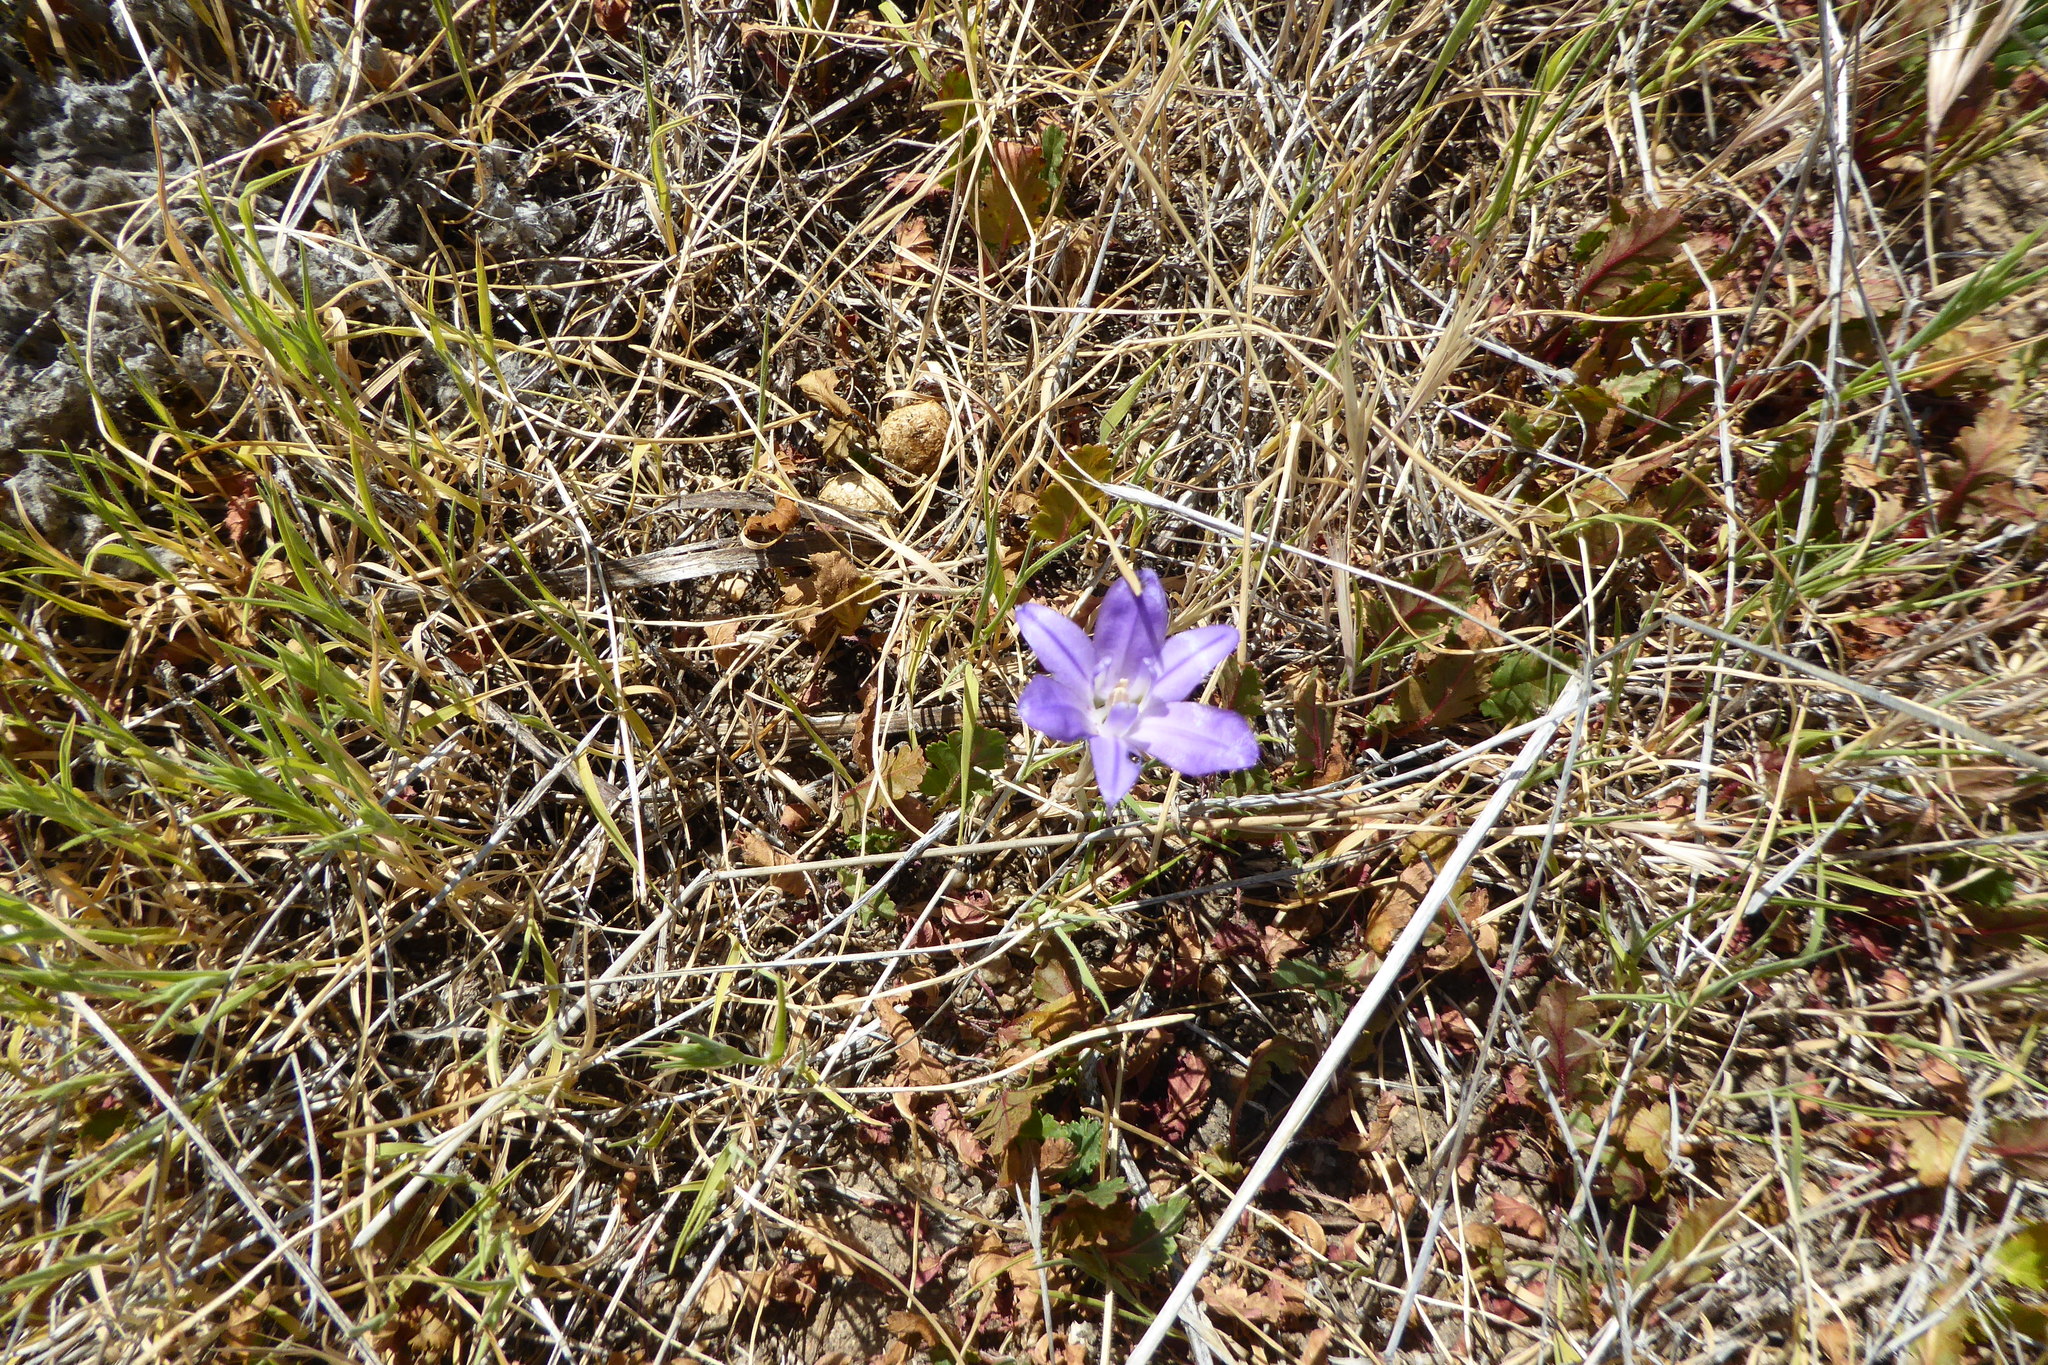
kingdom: Plantae
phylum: Tracheophyta
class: Liliopsida
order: Asparagales
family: Asparagaceae
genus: Brodiaea
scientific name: Brodiaea terrestris
